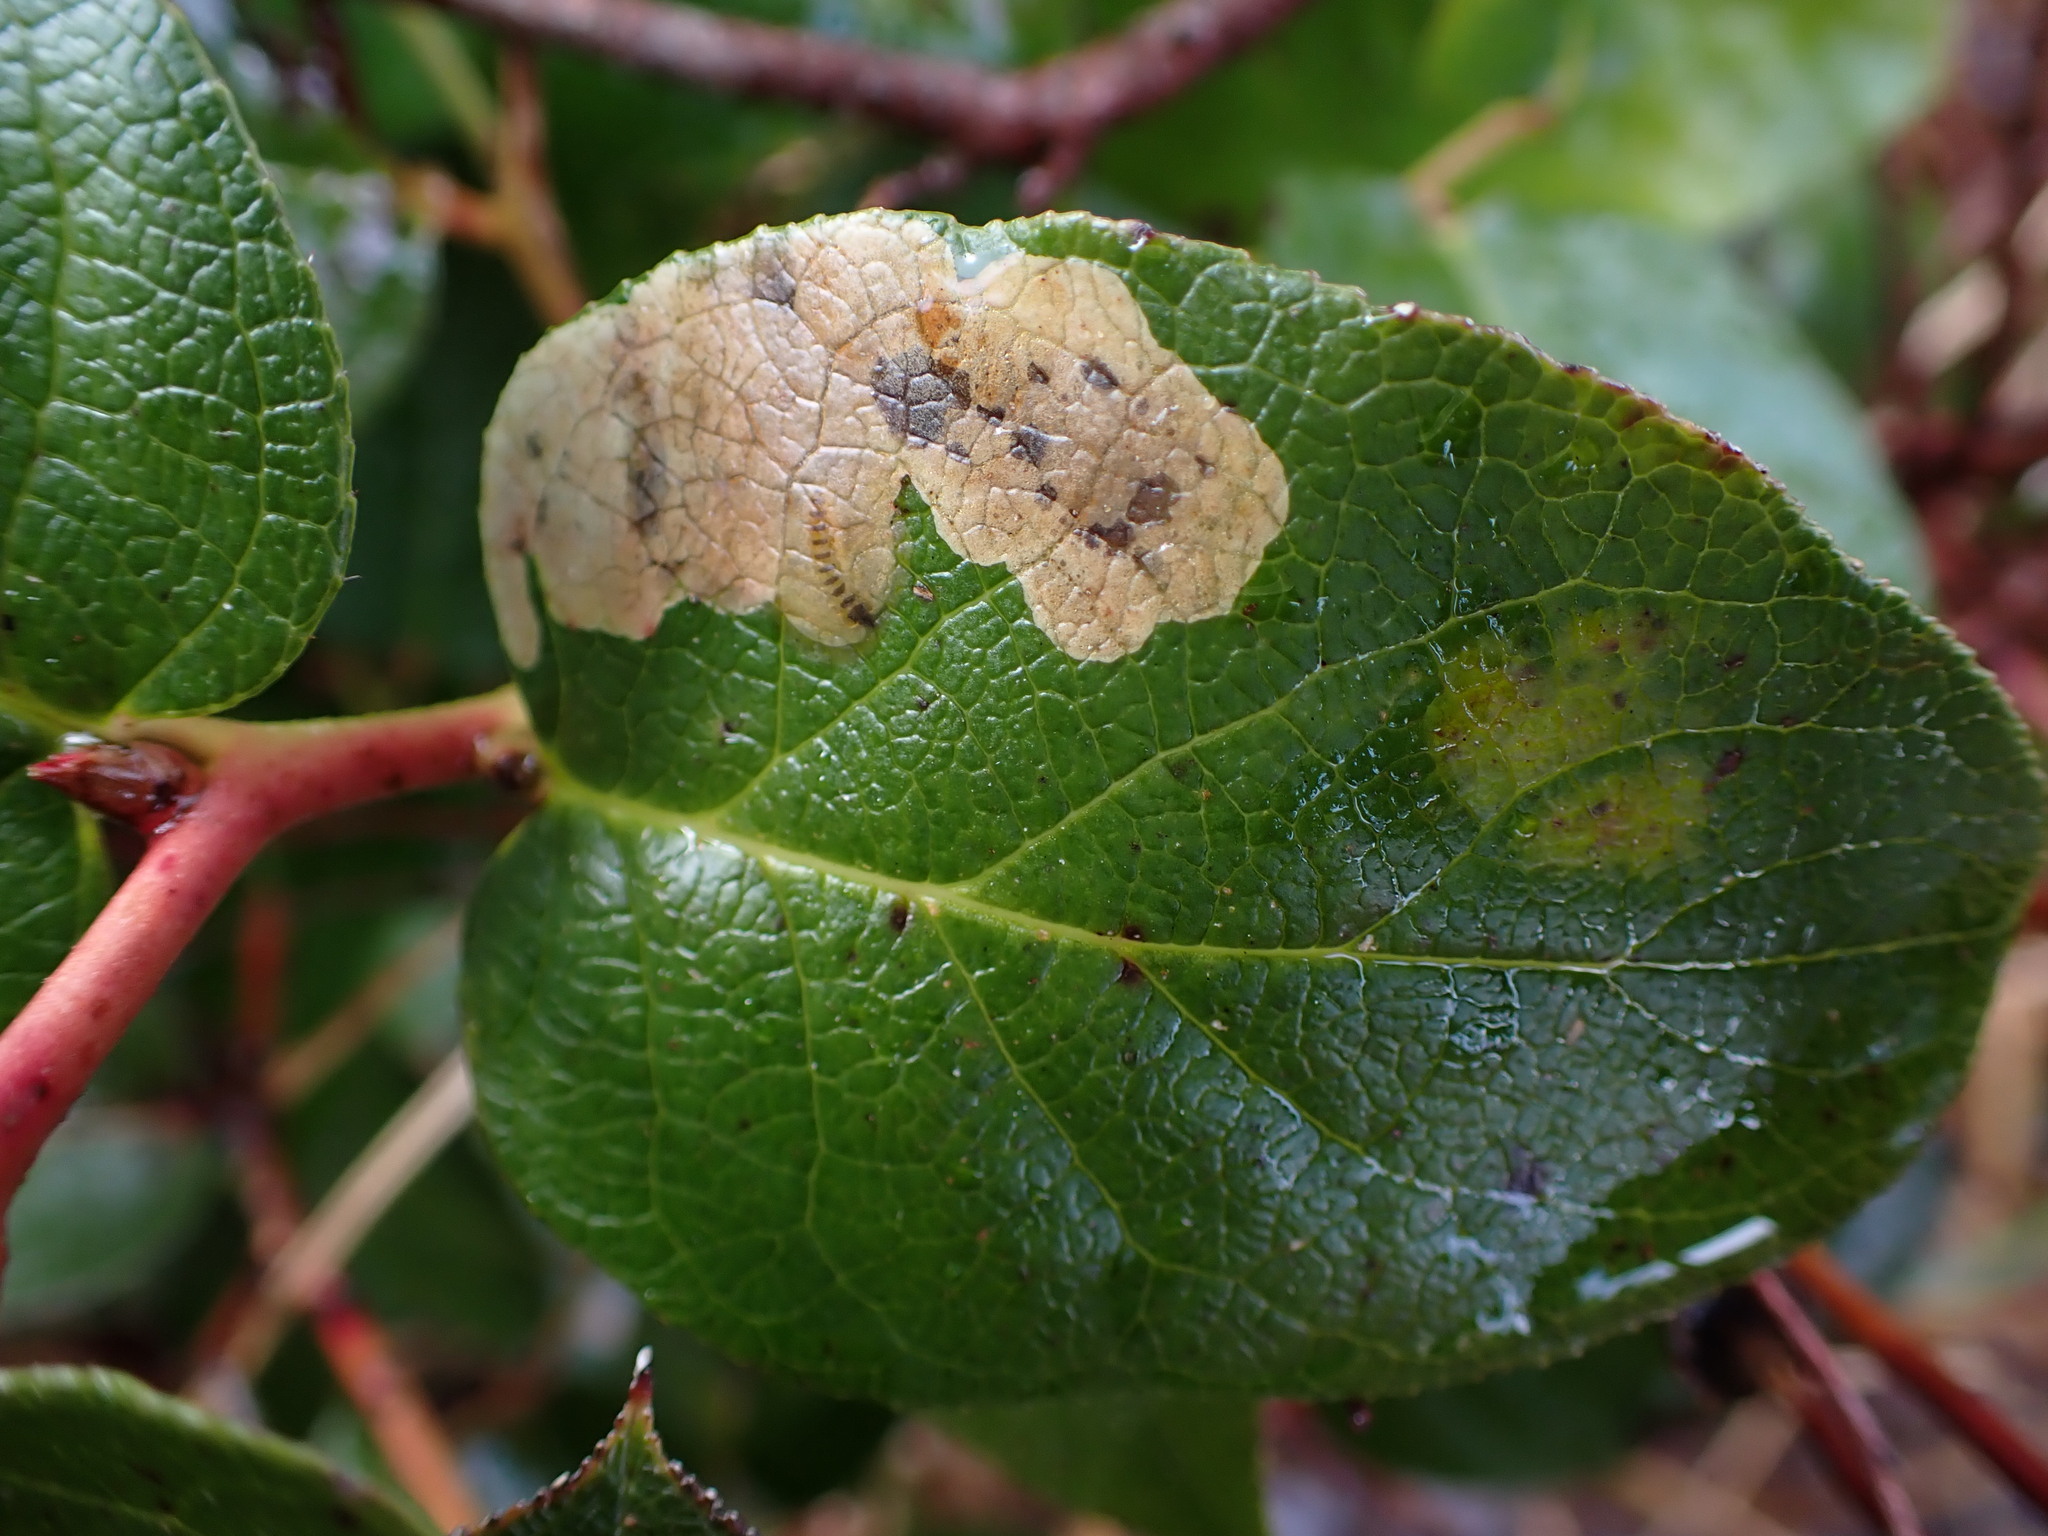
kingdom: Animalia
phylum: Arthropoda
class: Insecta
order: Lepidoptera
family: Gracillariidae
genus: Cameraria
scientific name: Cameraria gaultheriella
